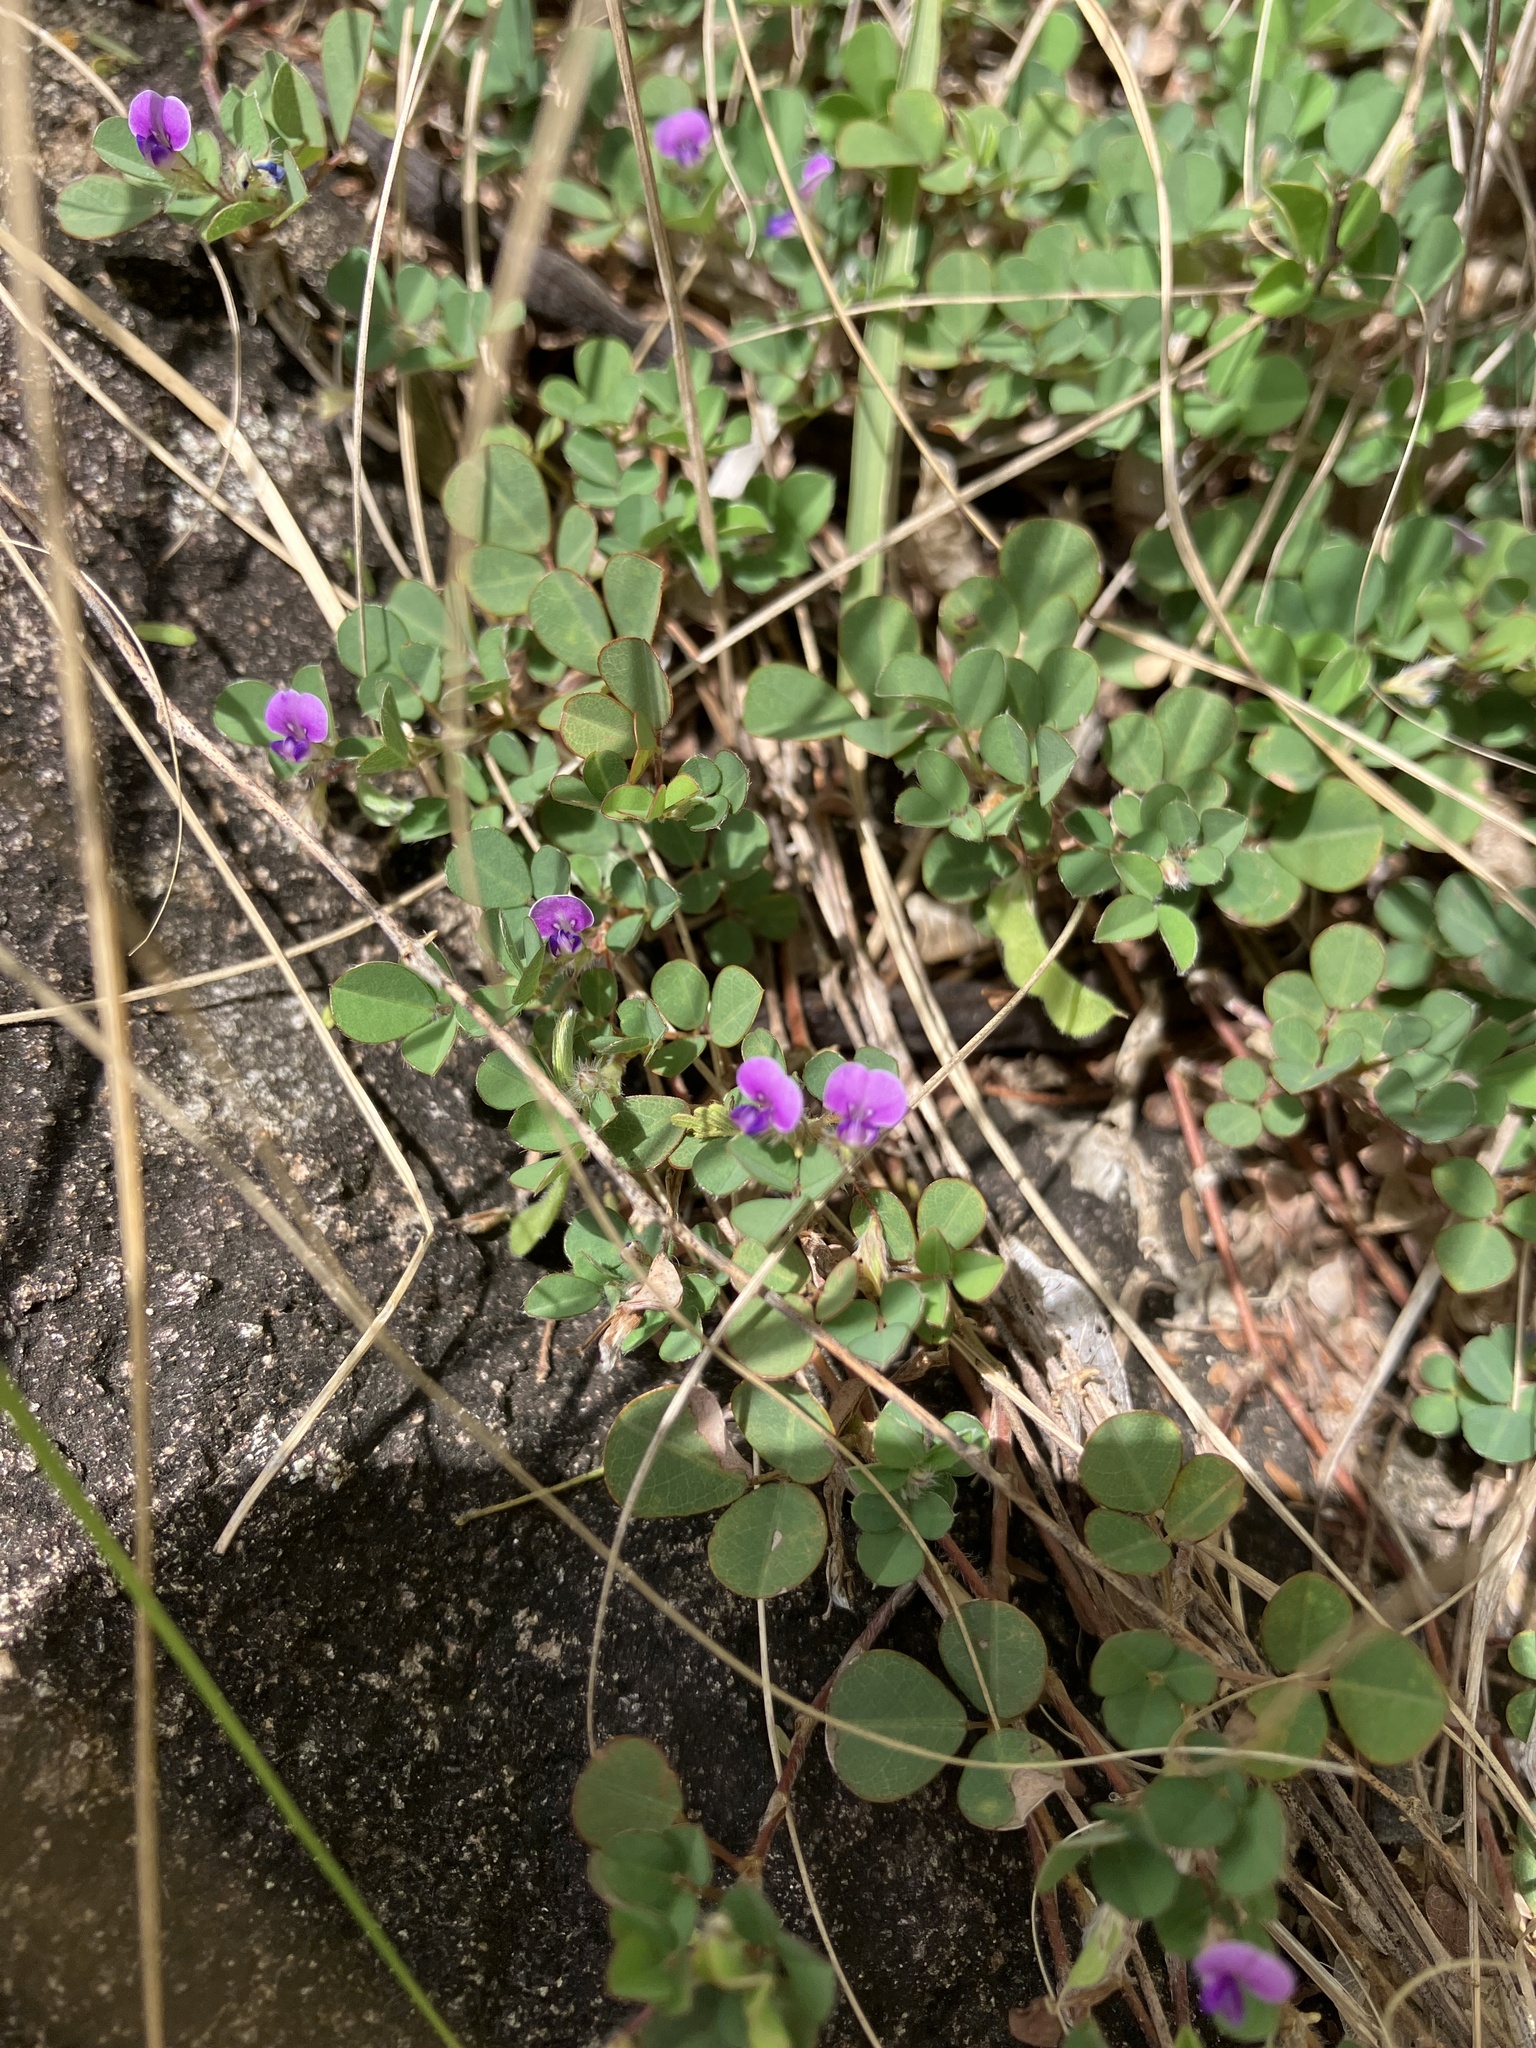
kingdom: Plantae
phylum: Tracheophyta
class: Magnoliopsida
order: Fabales
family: Fabaceae
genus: Grona
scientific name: Grona triflora
